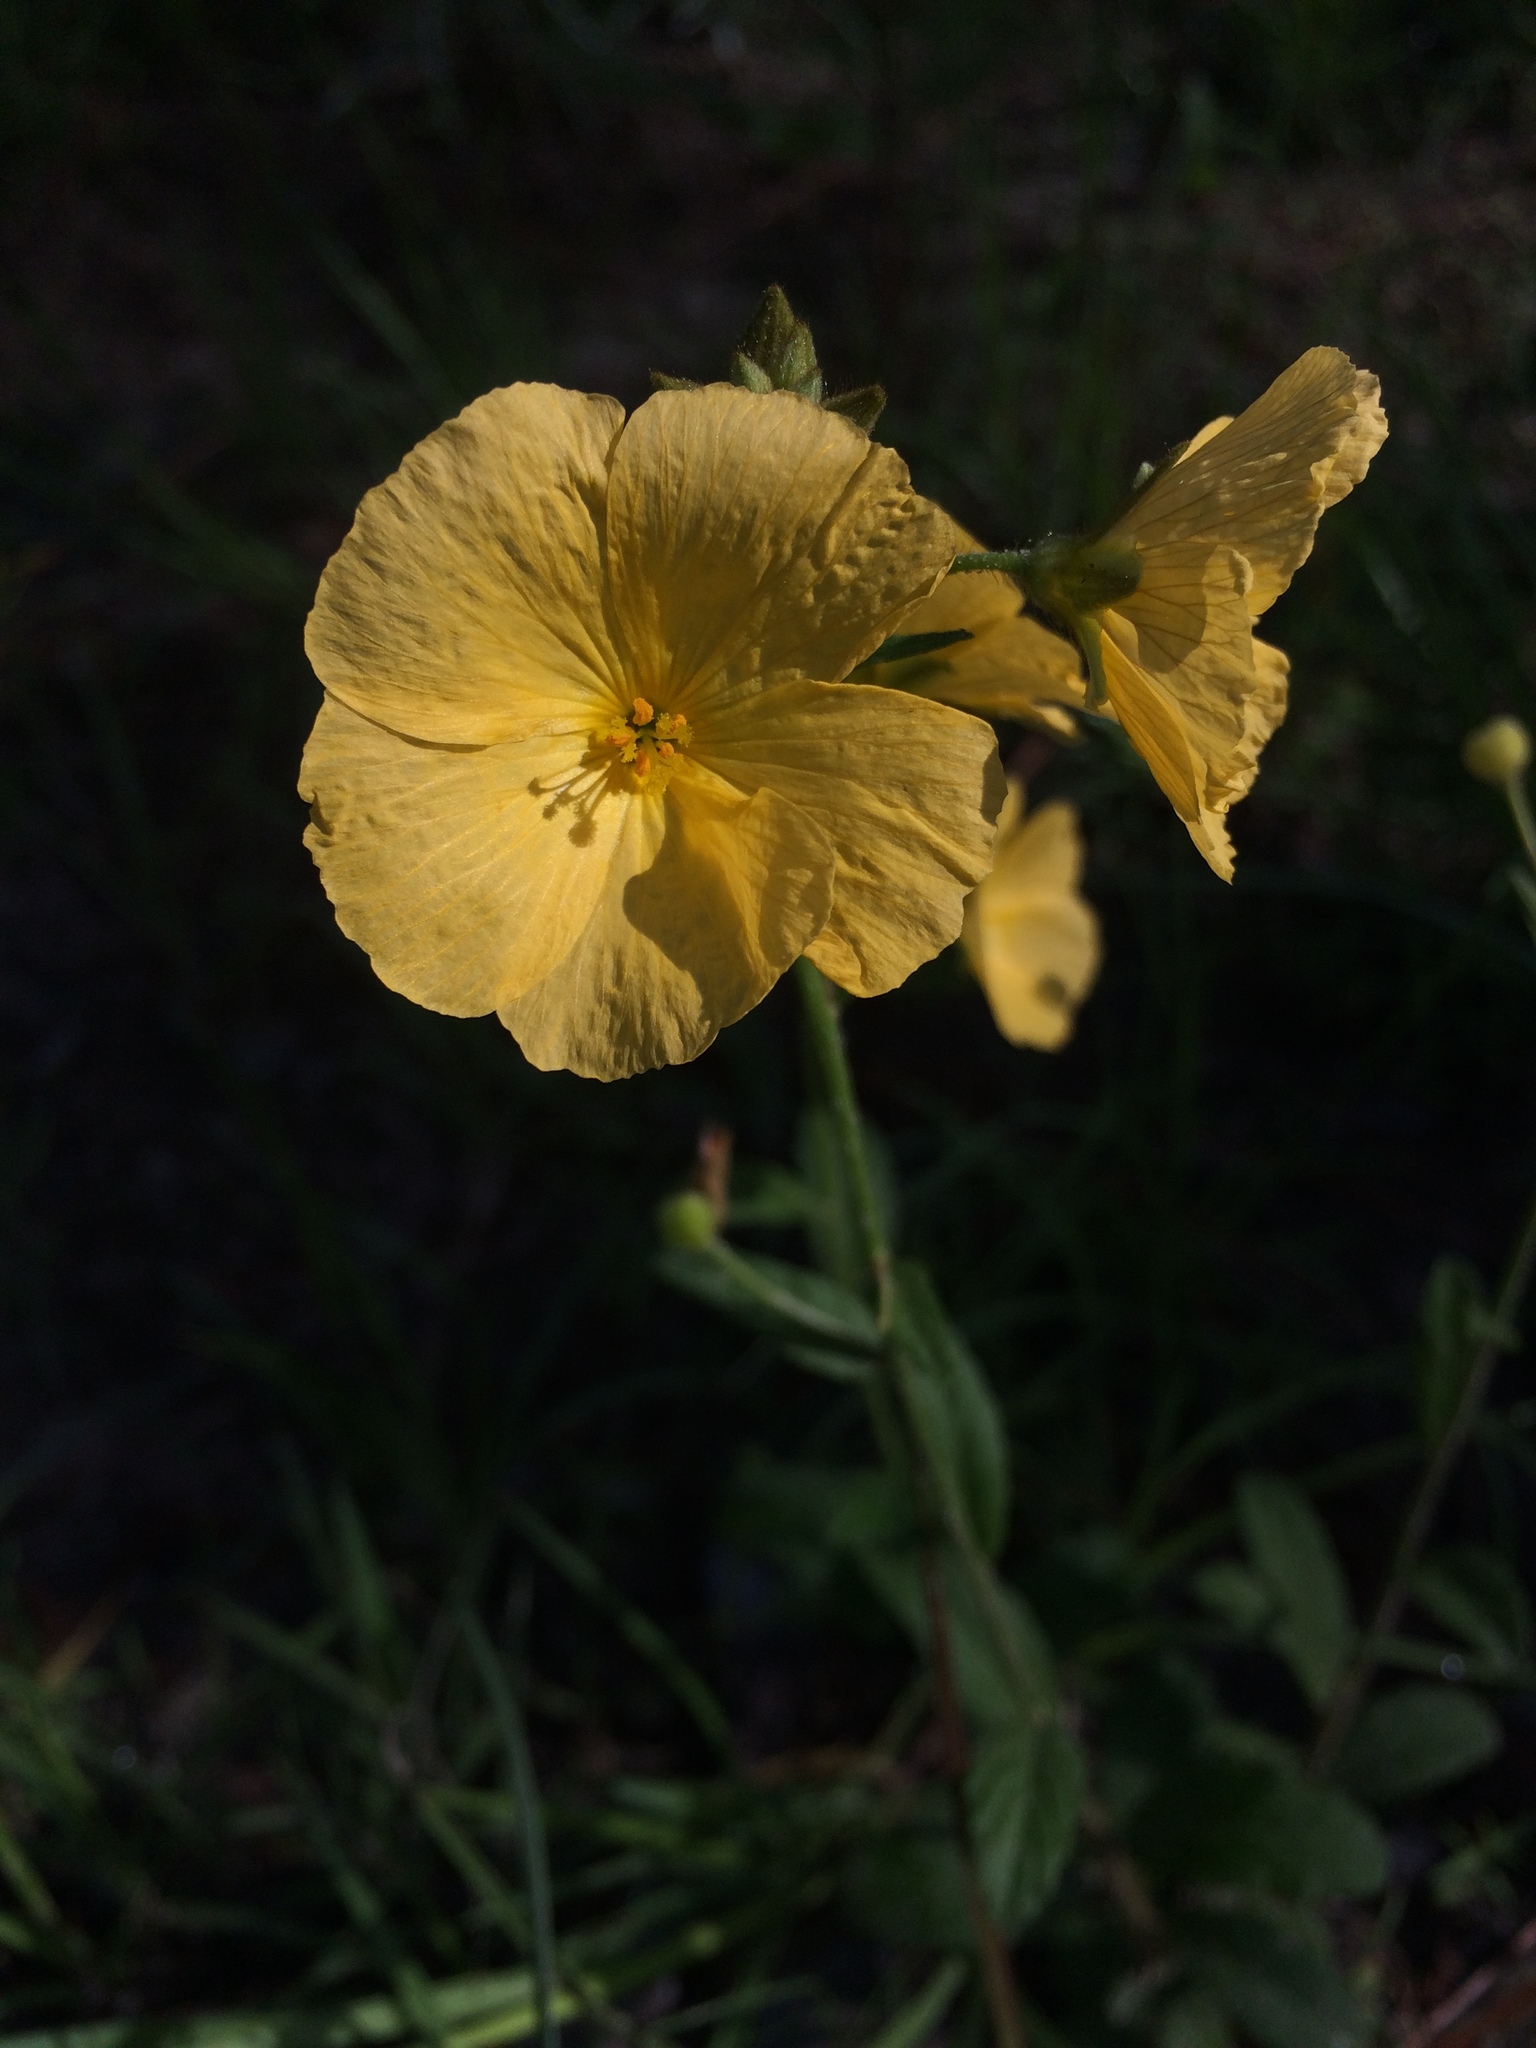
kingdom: Plantae
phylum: Tracheophyta
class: Magnoliopsida
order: Malpighiales
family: Turneraceae
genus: Piriqueta
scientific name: Piriqueta cistoides
